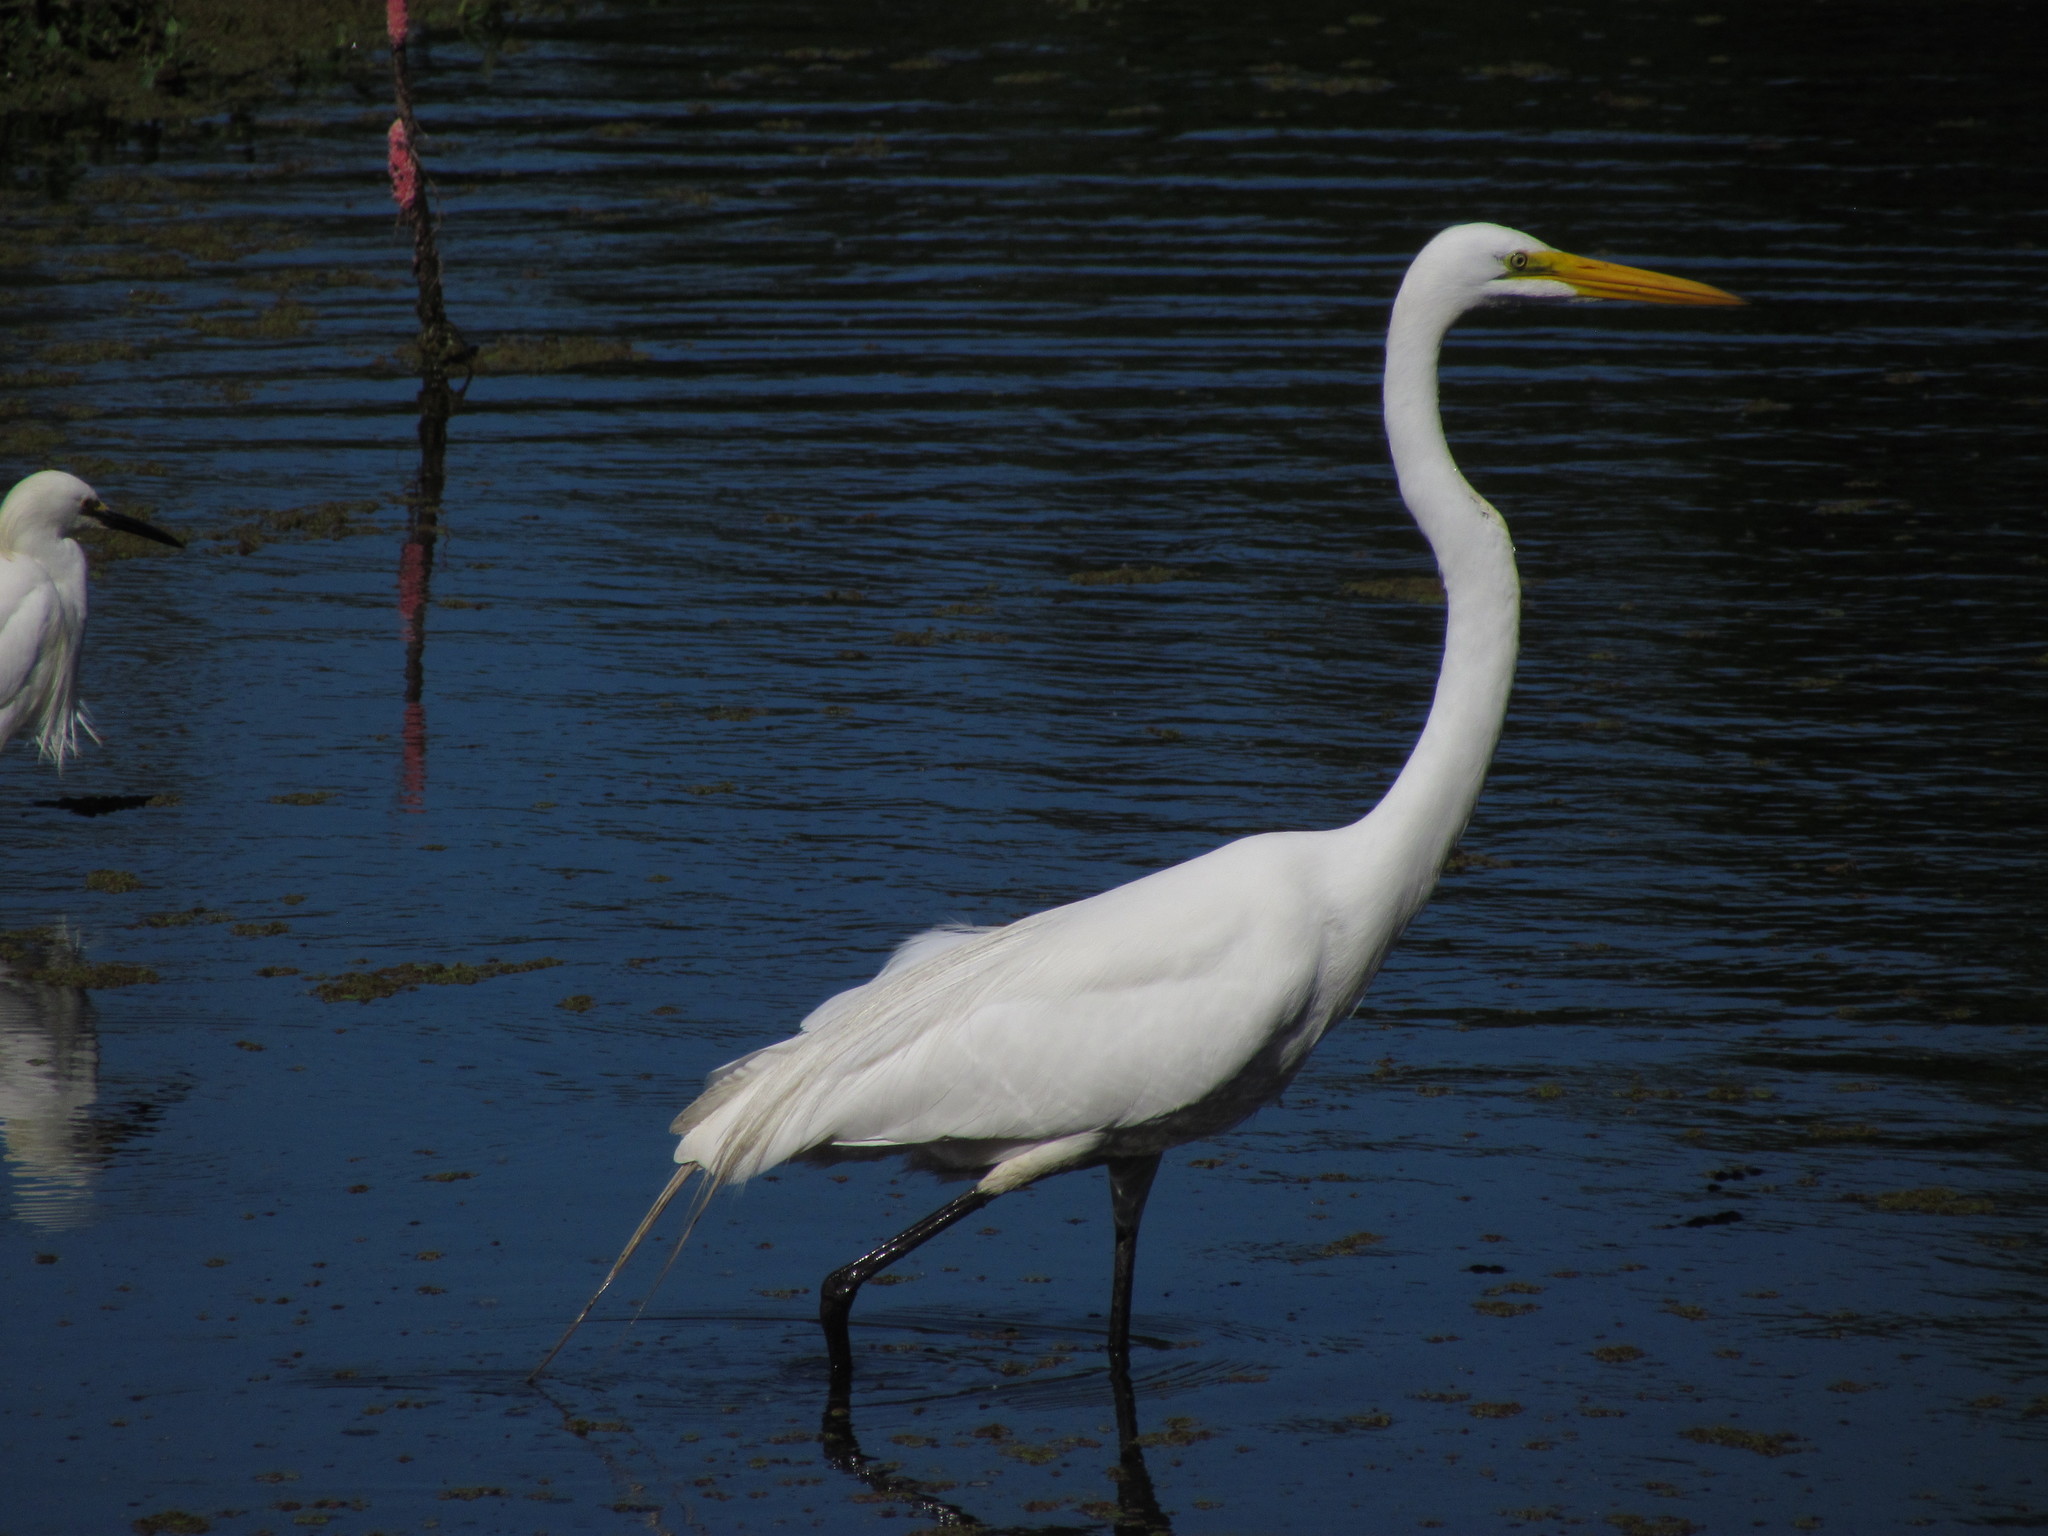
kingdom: Animalia
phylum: Chordata
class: Aves
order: Pelecaniformes
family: Ardeidae
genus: Ardea
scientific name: Ardea alba
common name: Great egret
